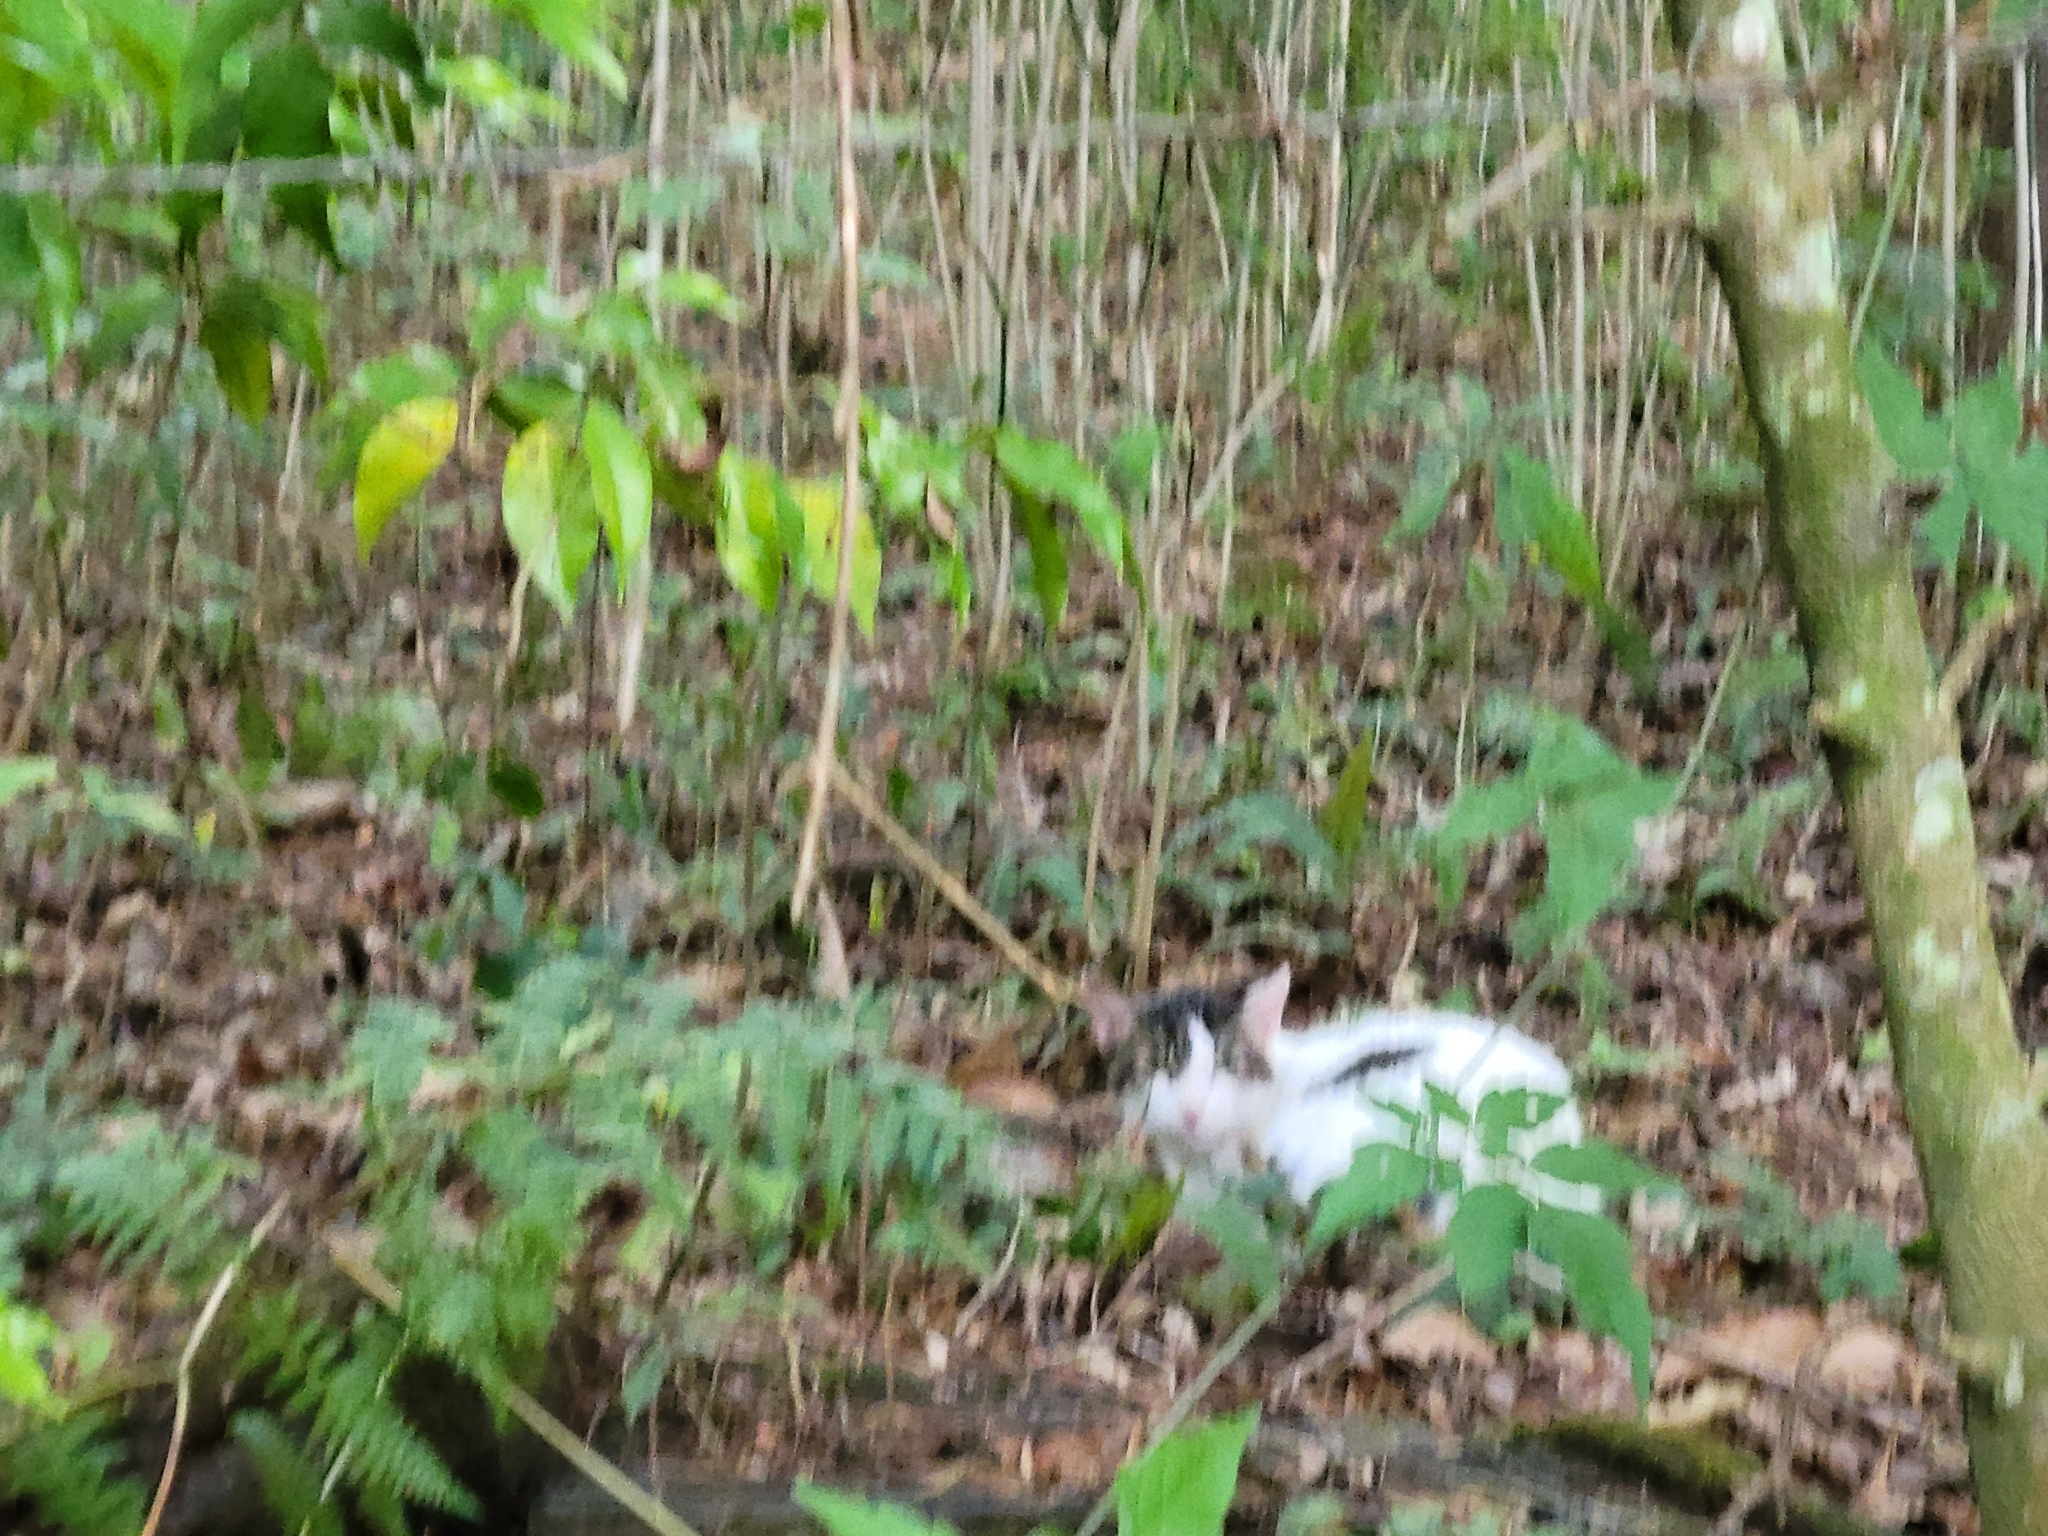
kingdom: Animalia
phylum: Chordata
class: Mammalia
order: Carnivora
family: Felidae
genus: Felis
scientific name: Felis catus
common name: Domestic cat
